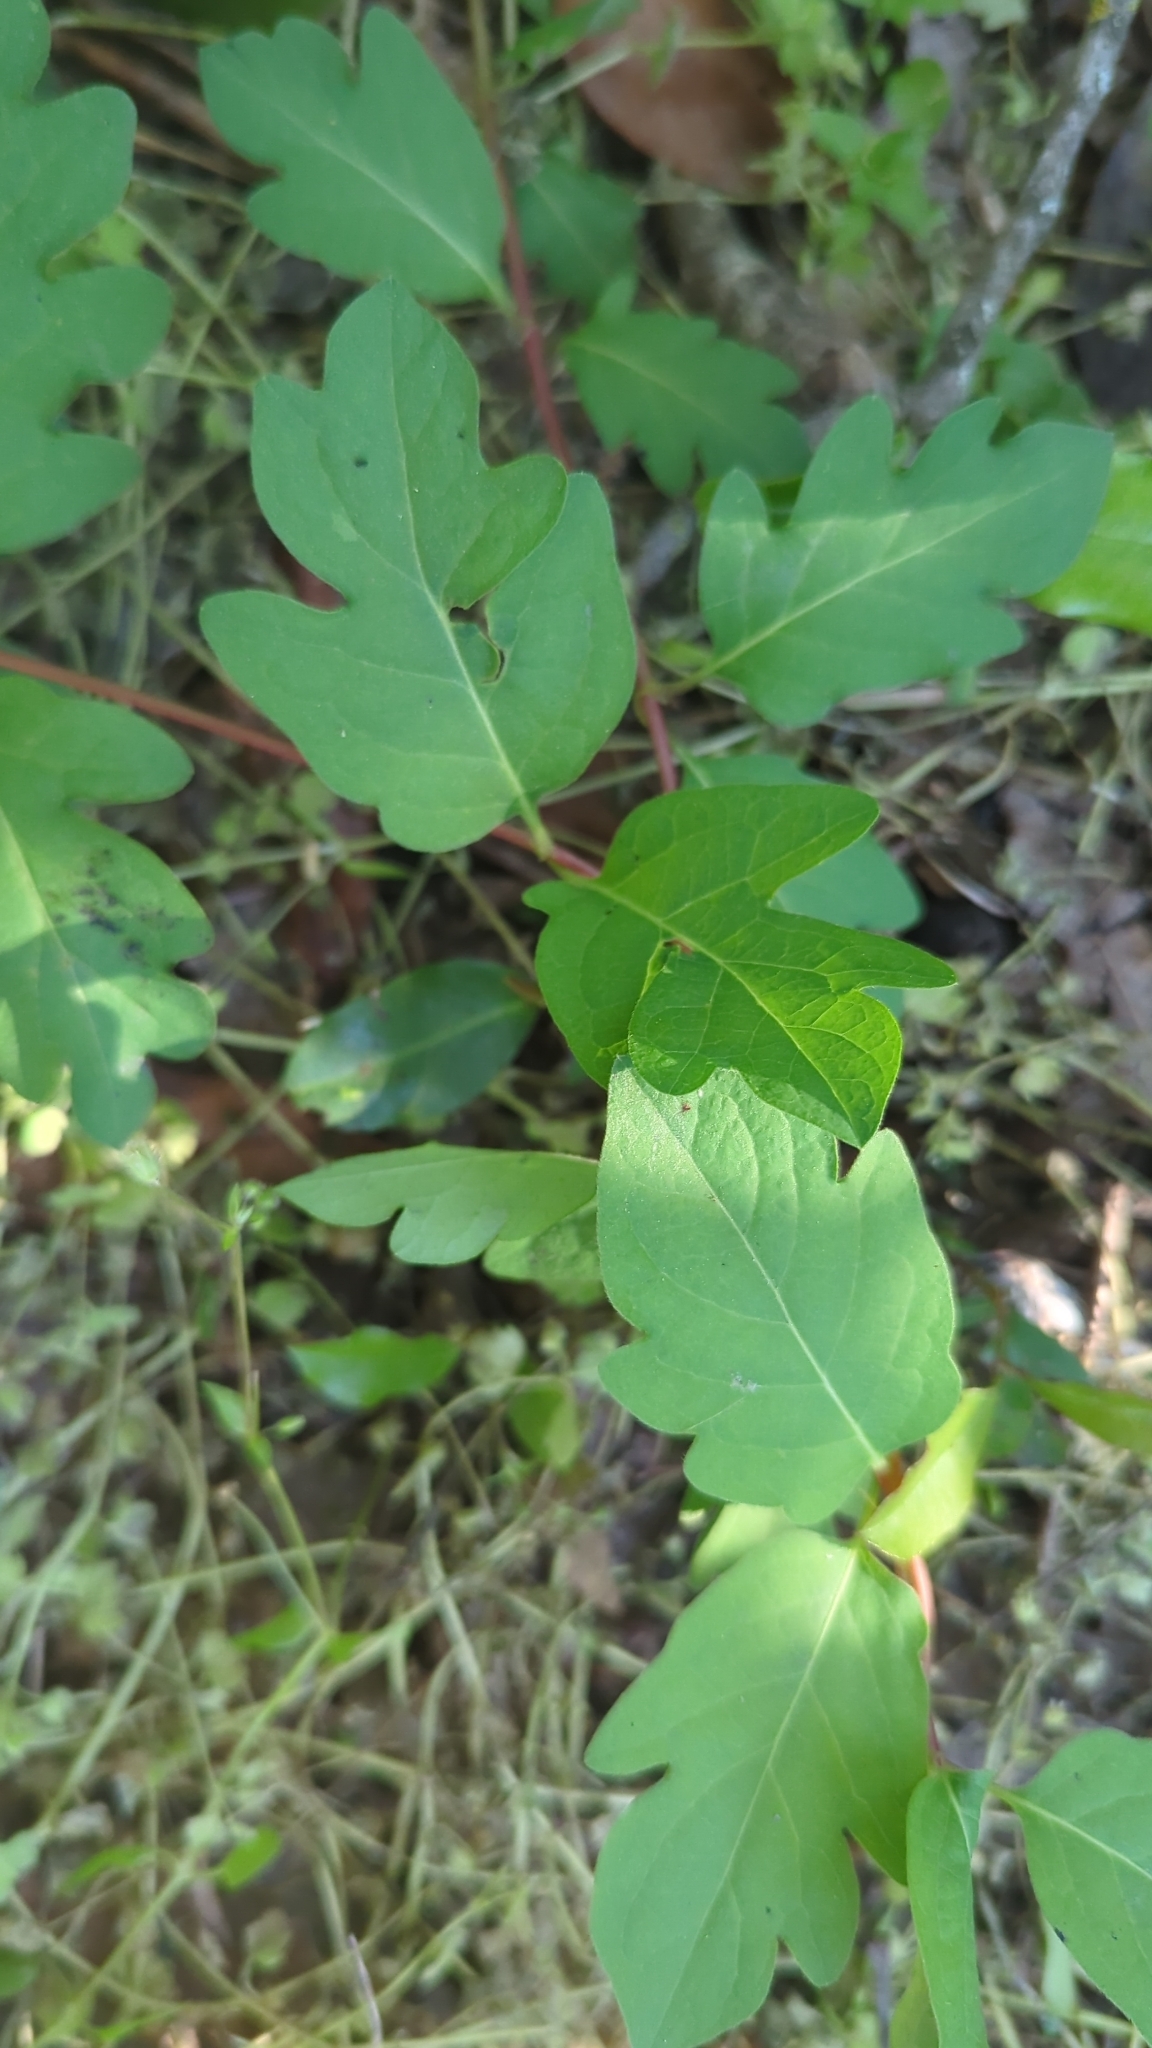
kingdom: Plantae
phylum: Tracheophyta
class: Magnoliopsida
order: Dipsacales
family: Caprifoliaceae
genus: Lonicera
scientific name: Lonicera japonica
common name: Japanese honeysuckle
